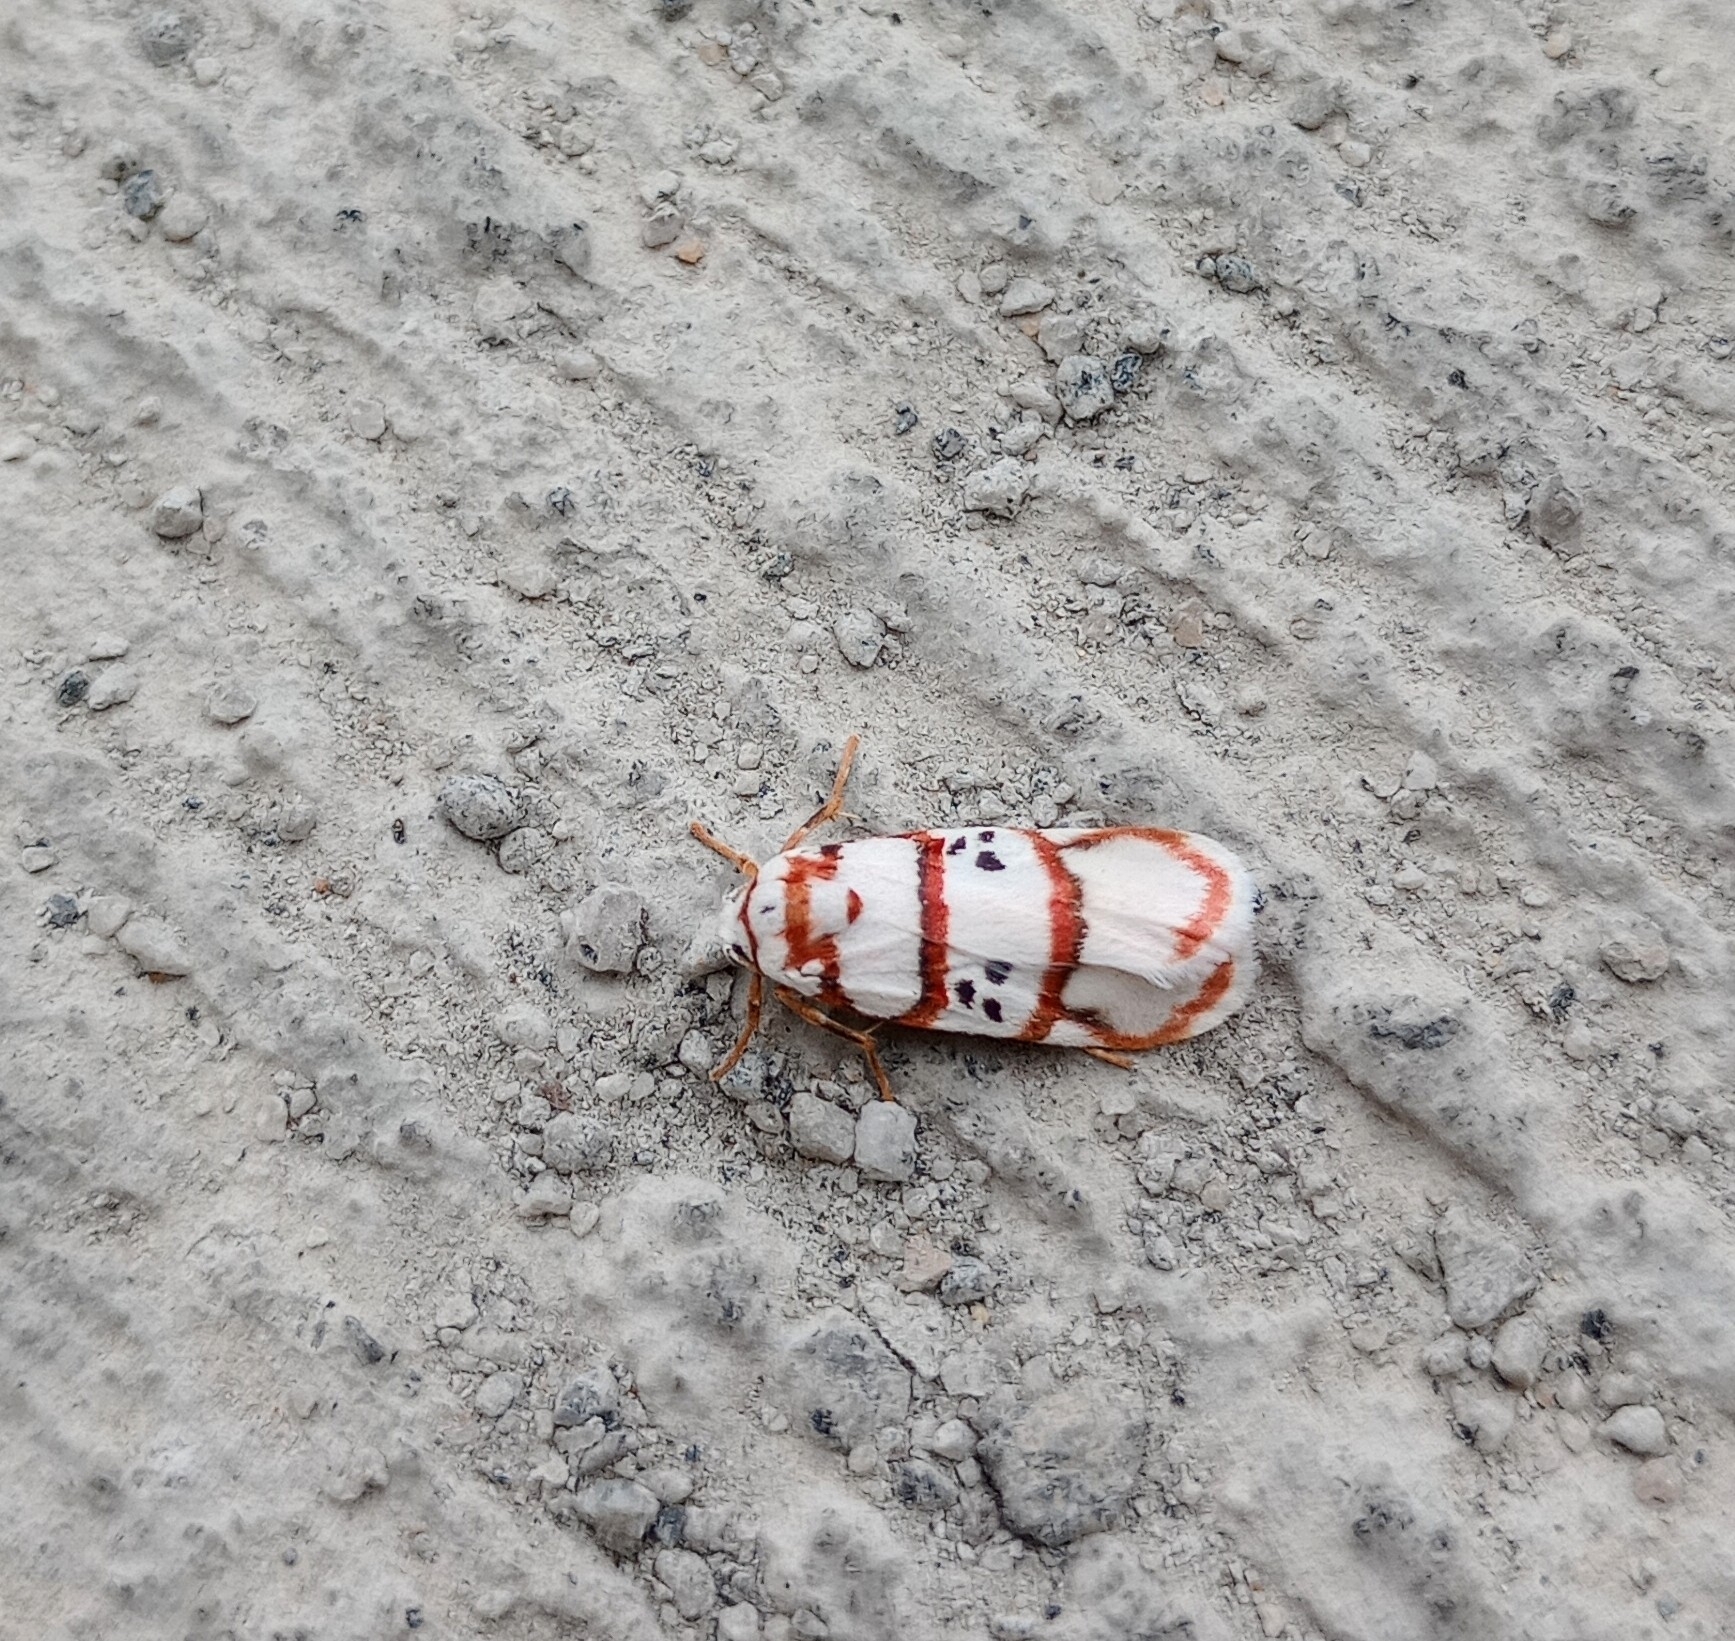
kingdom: Animalia
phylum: Arthropoda
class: Insecta
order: Lepidoptera
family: Erebidae
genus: Cyana
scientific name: Cyana peregrina
